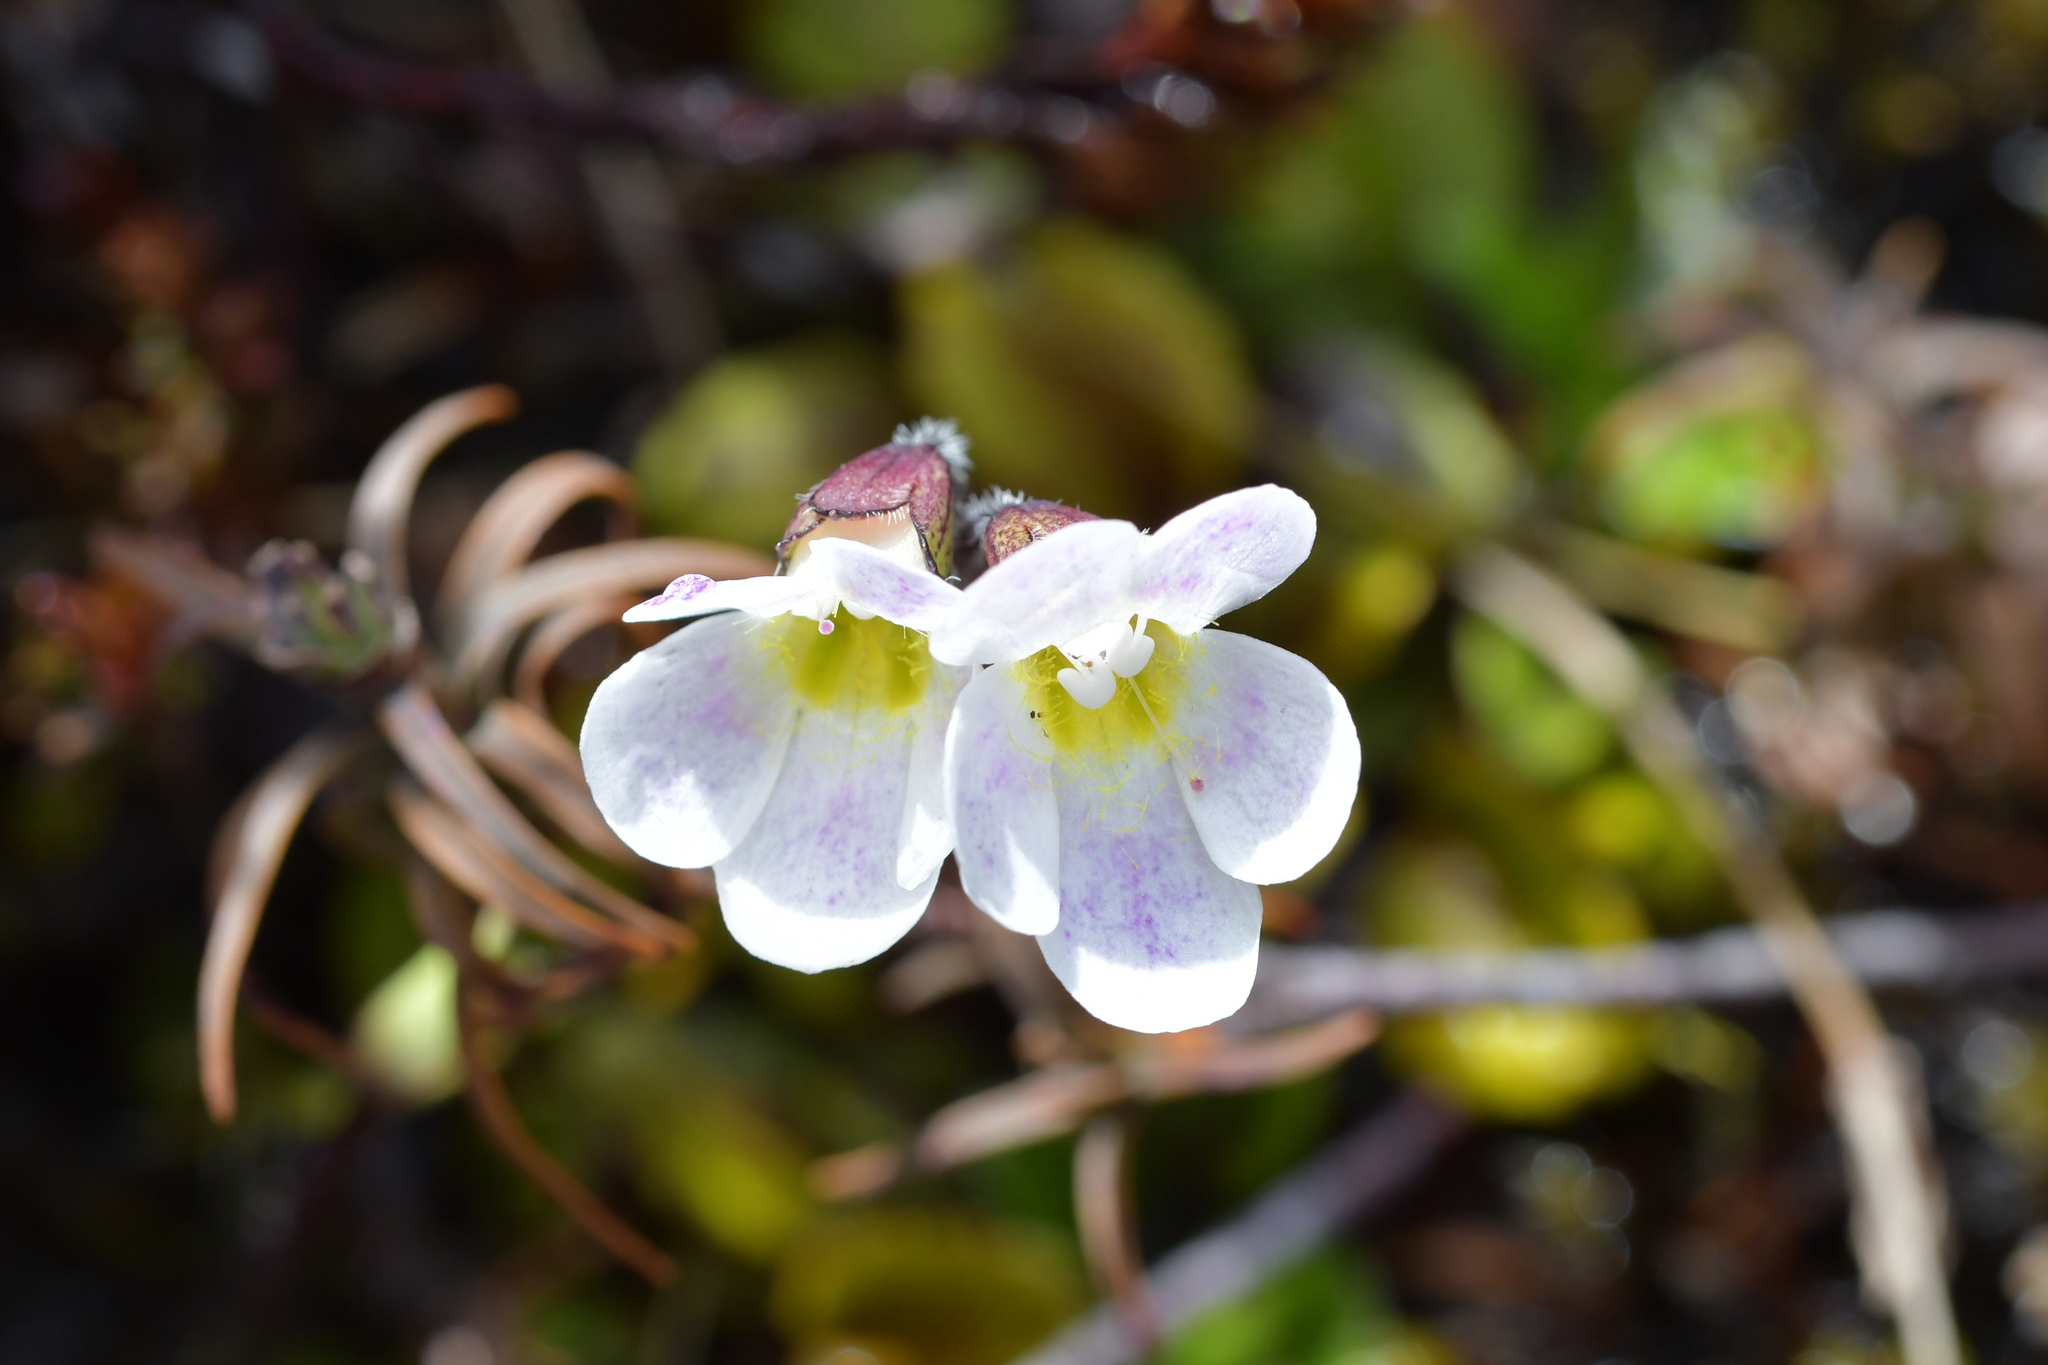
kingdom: Plantae
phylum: Tracheophyta
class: Magnoliopsida
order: Lamiales
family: Plantaginaceae
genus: Ourisia
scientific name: Ourisia vulcanica
